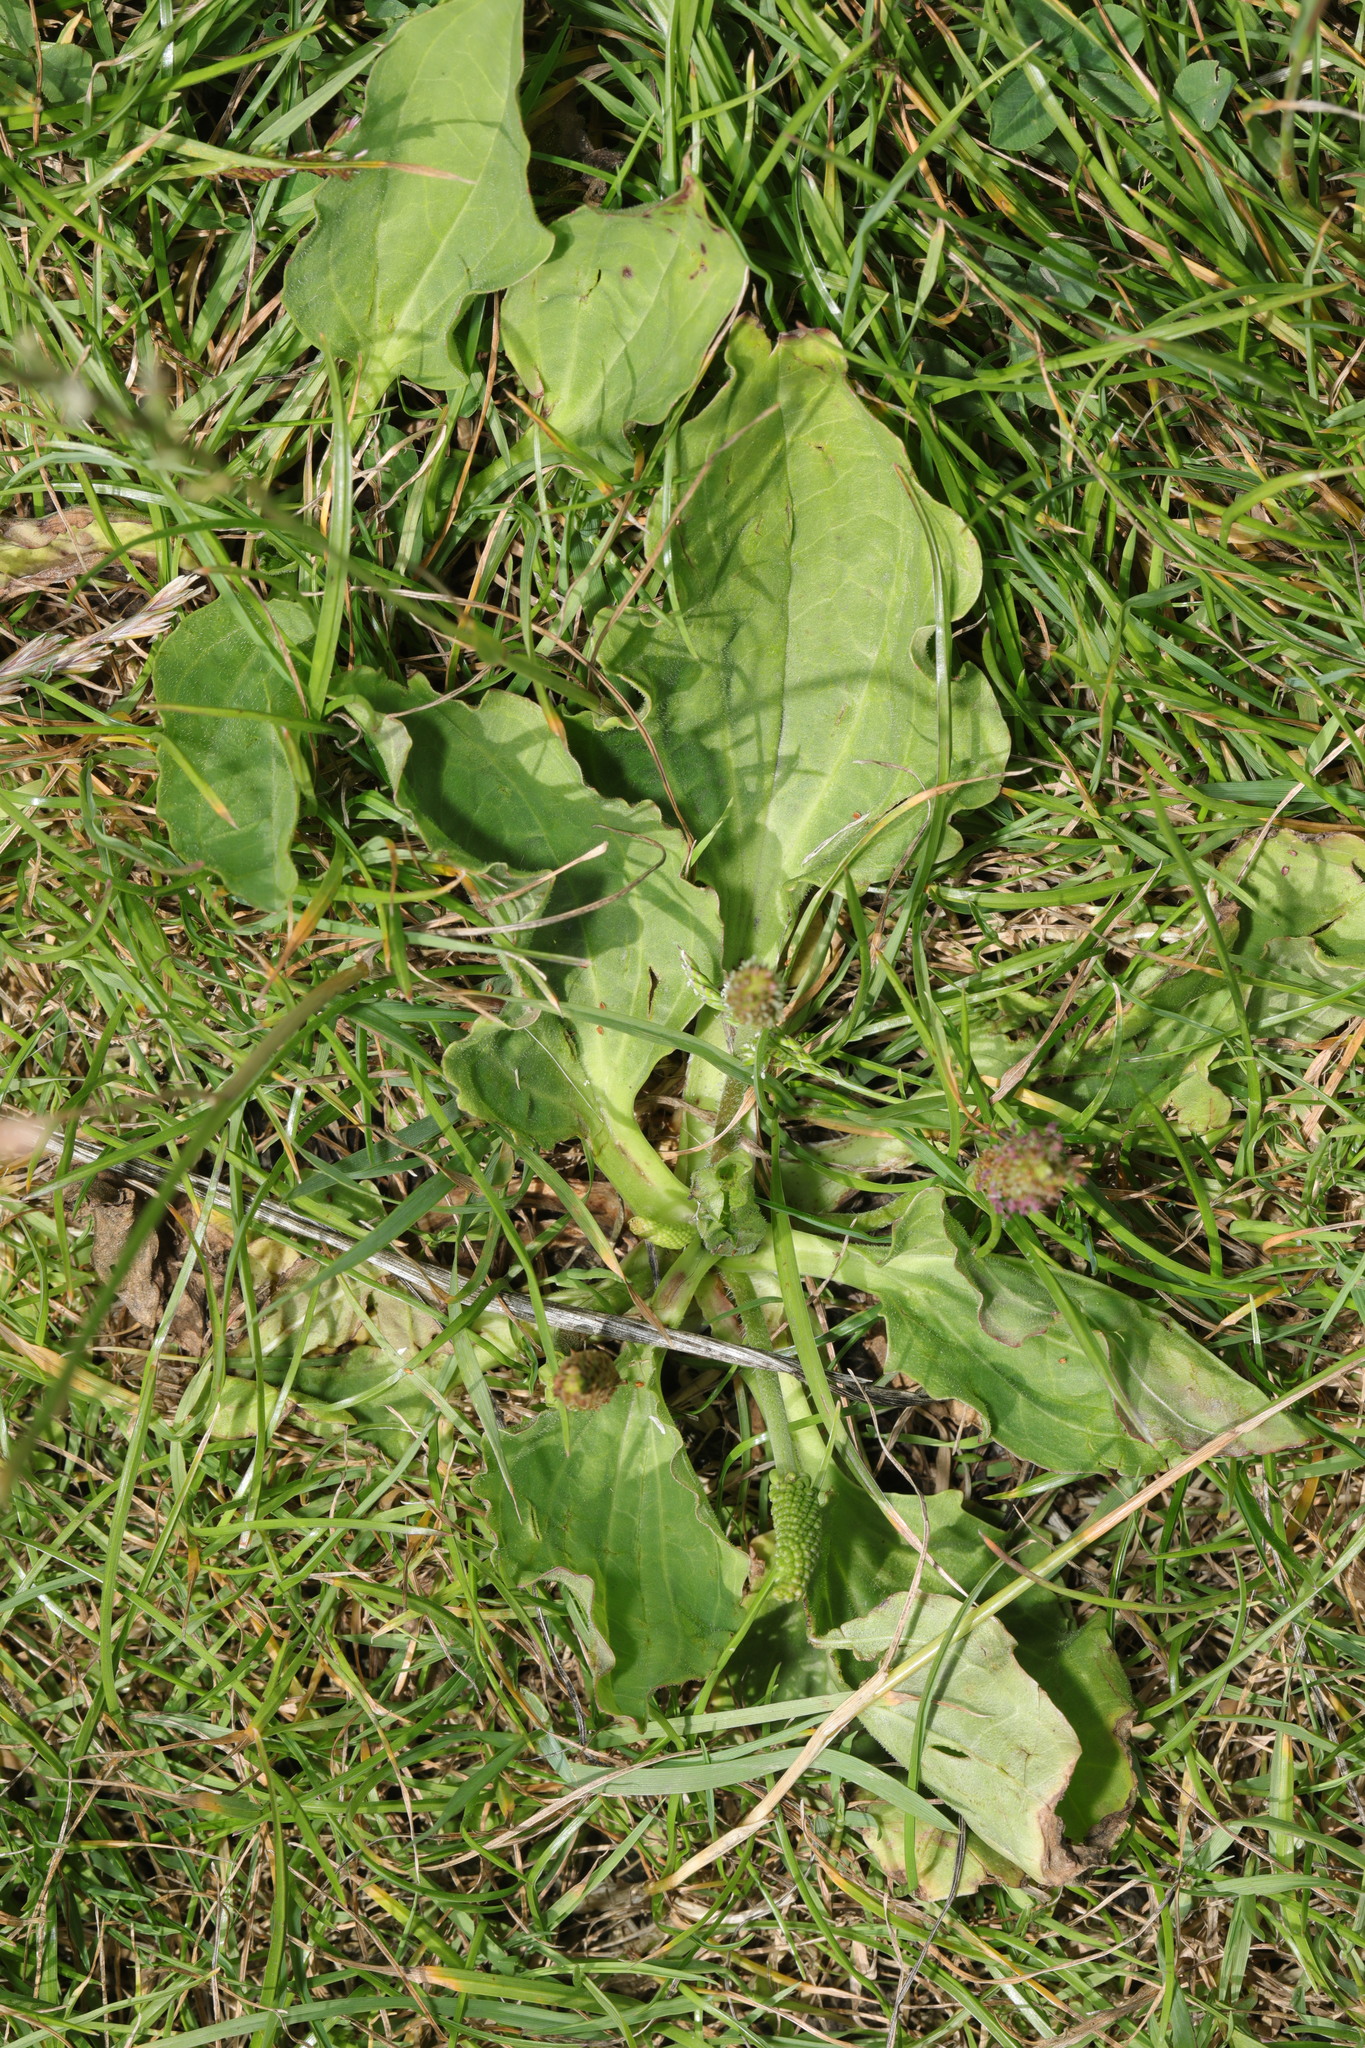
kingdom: Plantae
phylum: Tracheophyta
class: Magnoliopsida
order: Lamiales
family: Plantaginaceae
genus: Plantago
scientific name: Plantago major
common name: Common plantain
